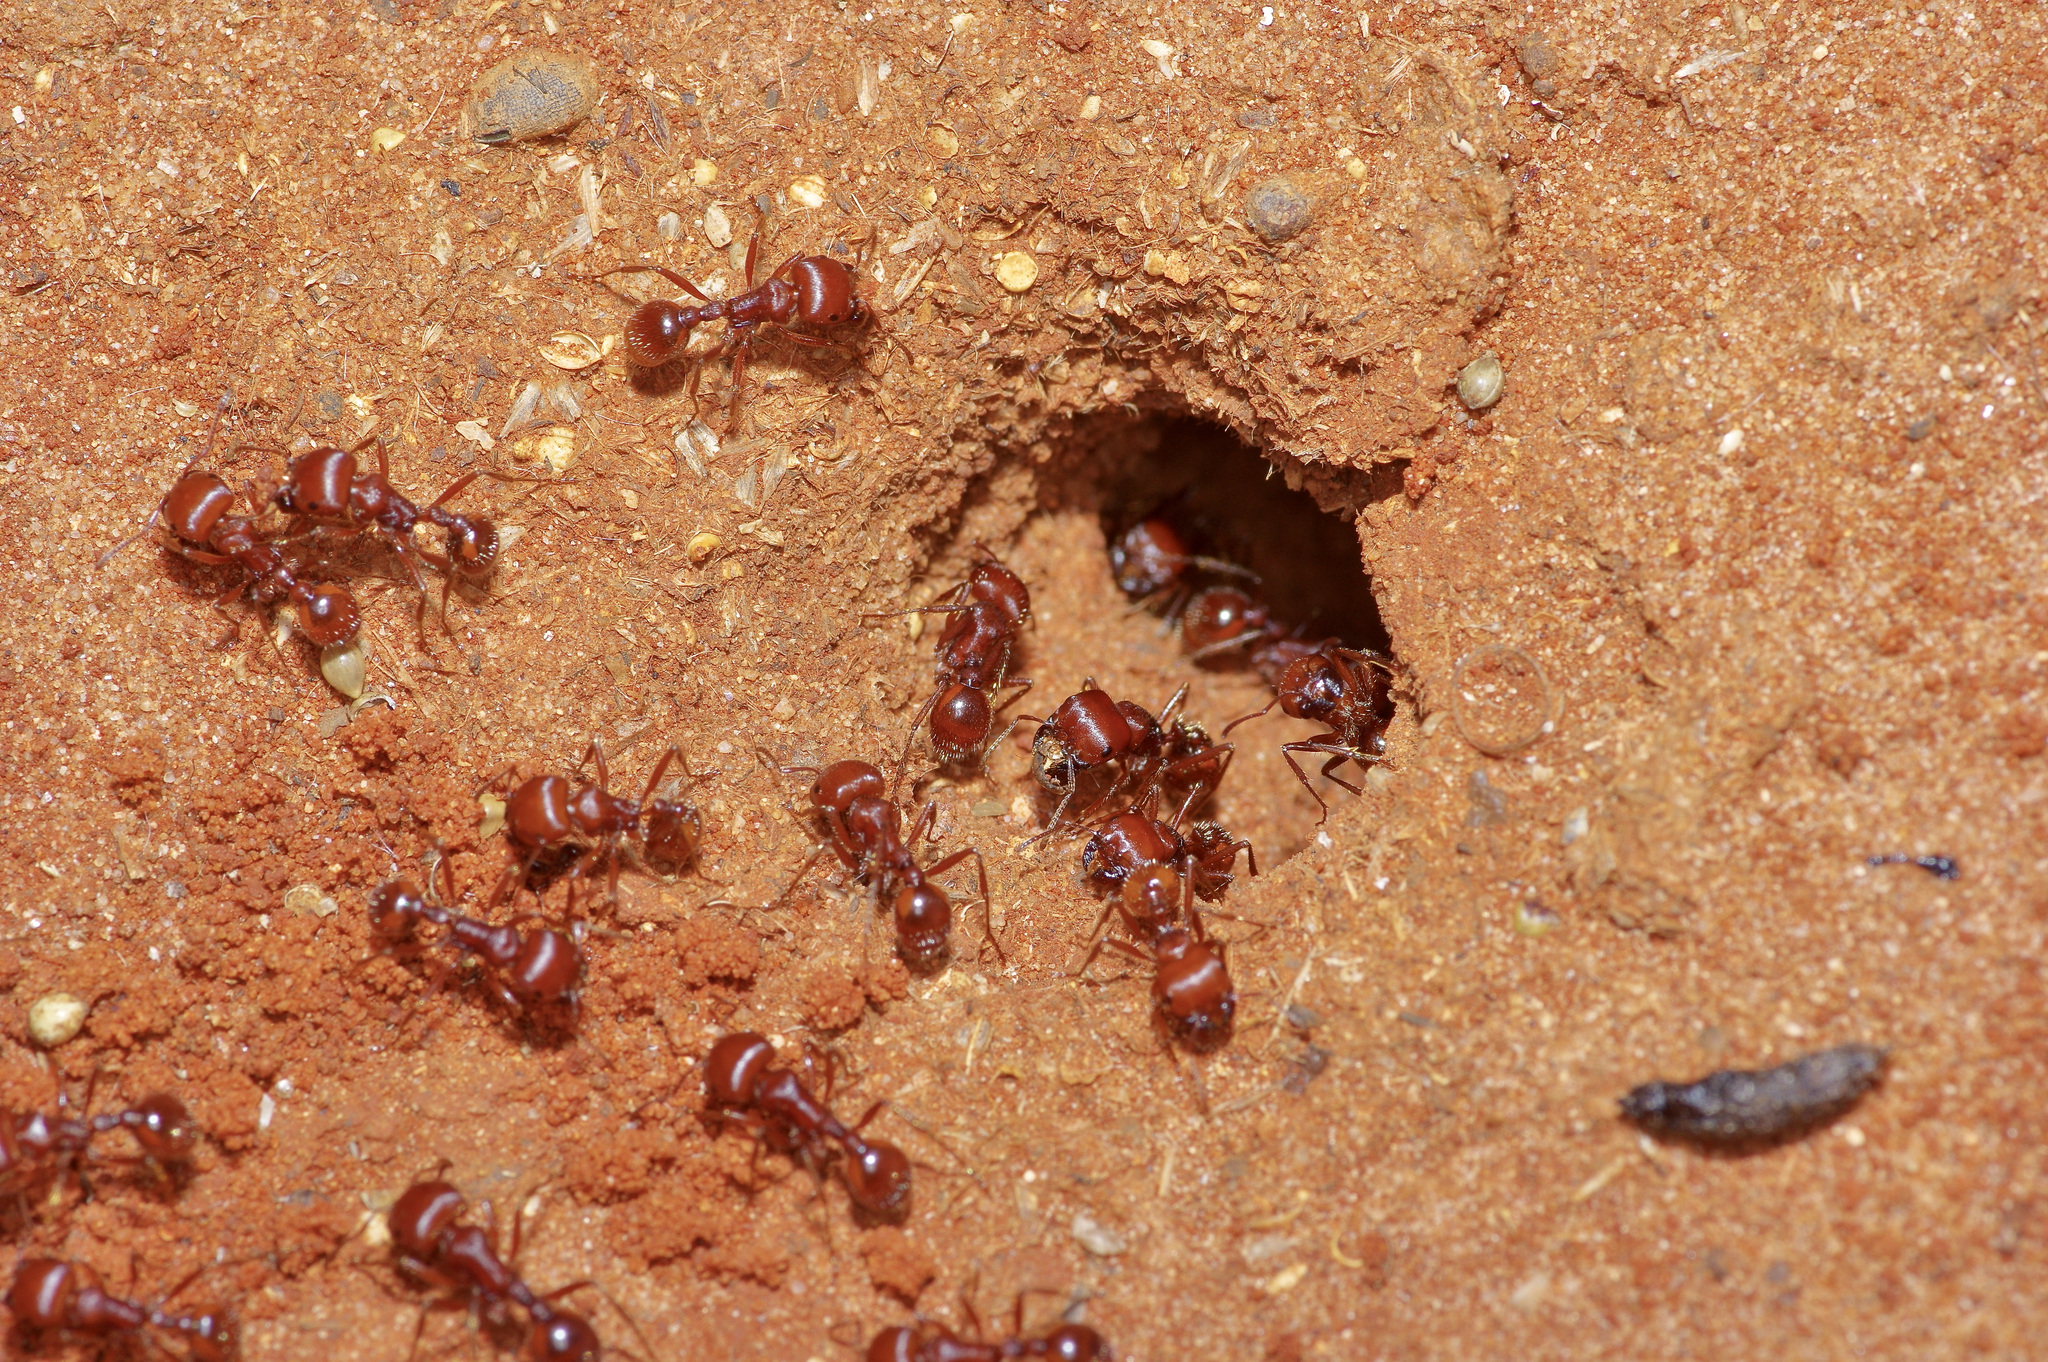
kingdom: Animalia
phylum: Arthropoda
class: Insecta
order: Hymenoptera
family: Formicidae
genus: Pogonomyrmex
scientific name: Pogonomyrmex barbatus
